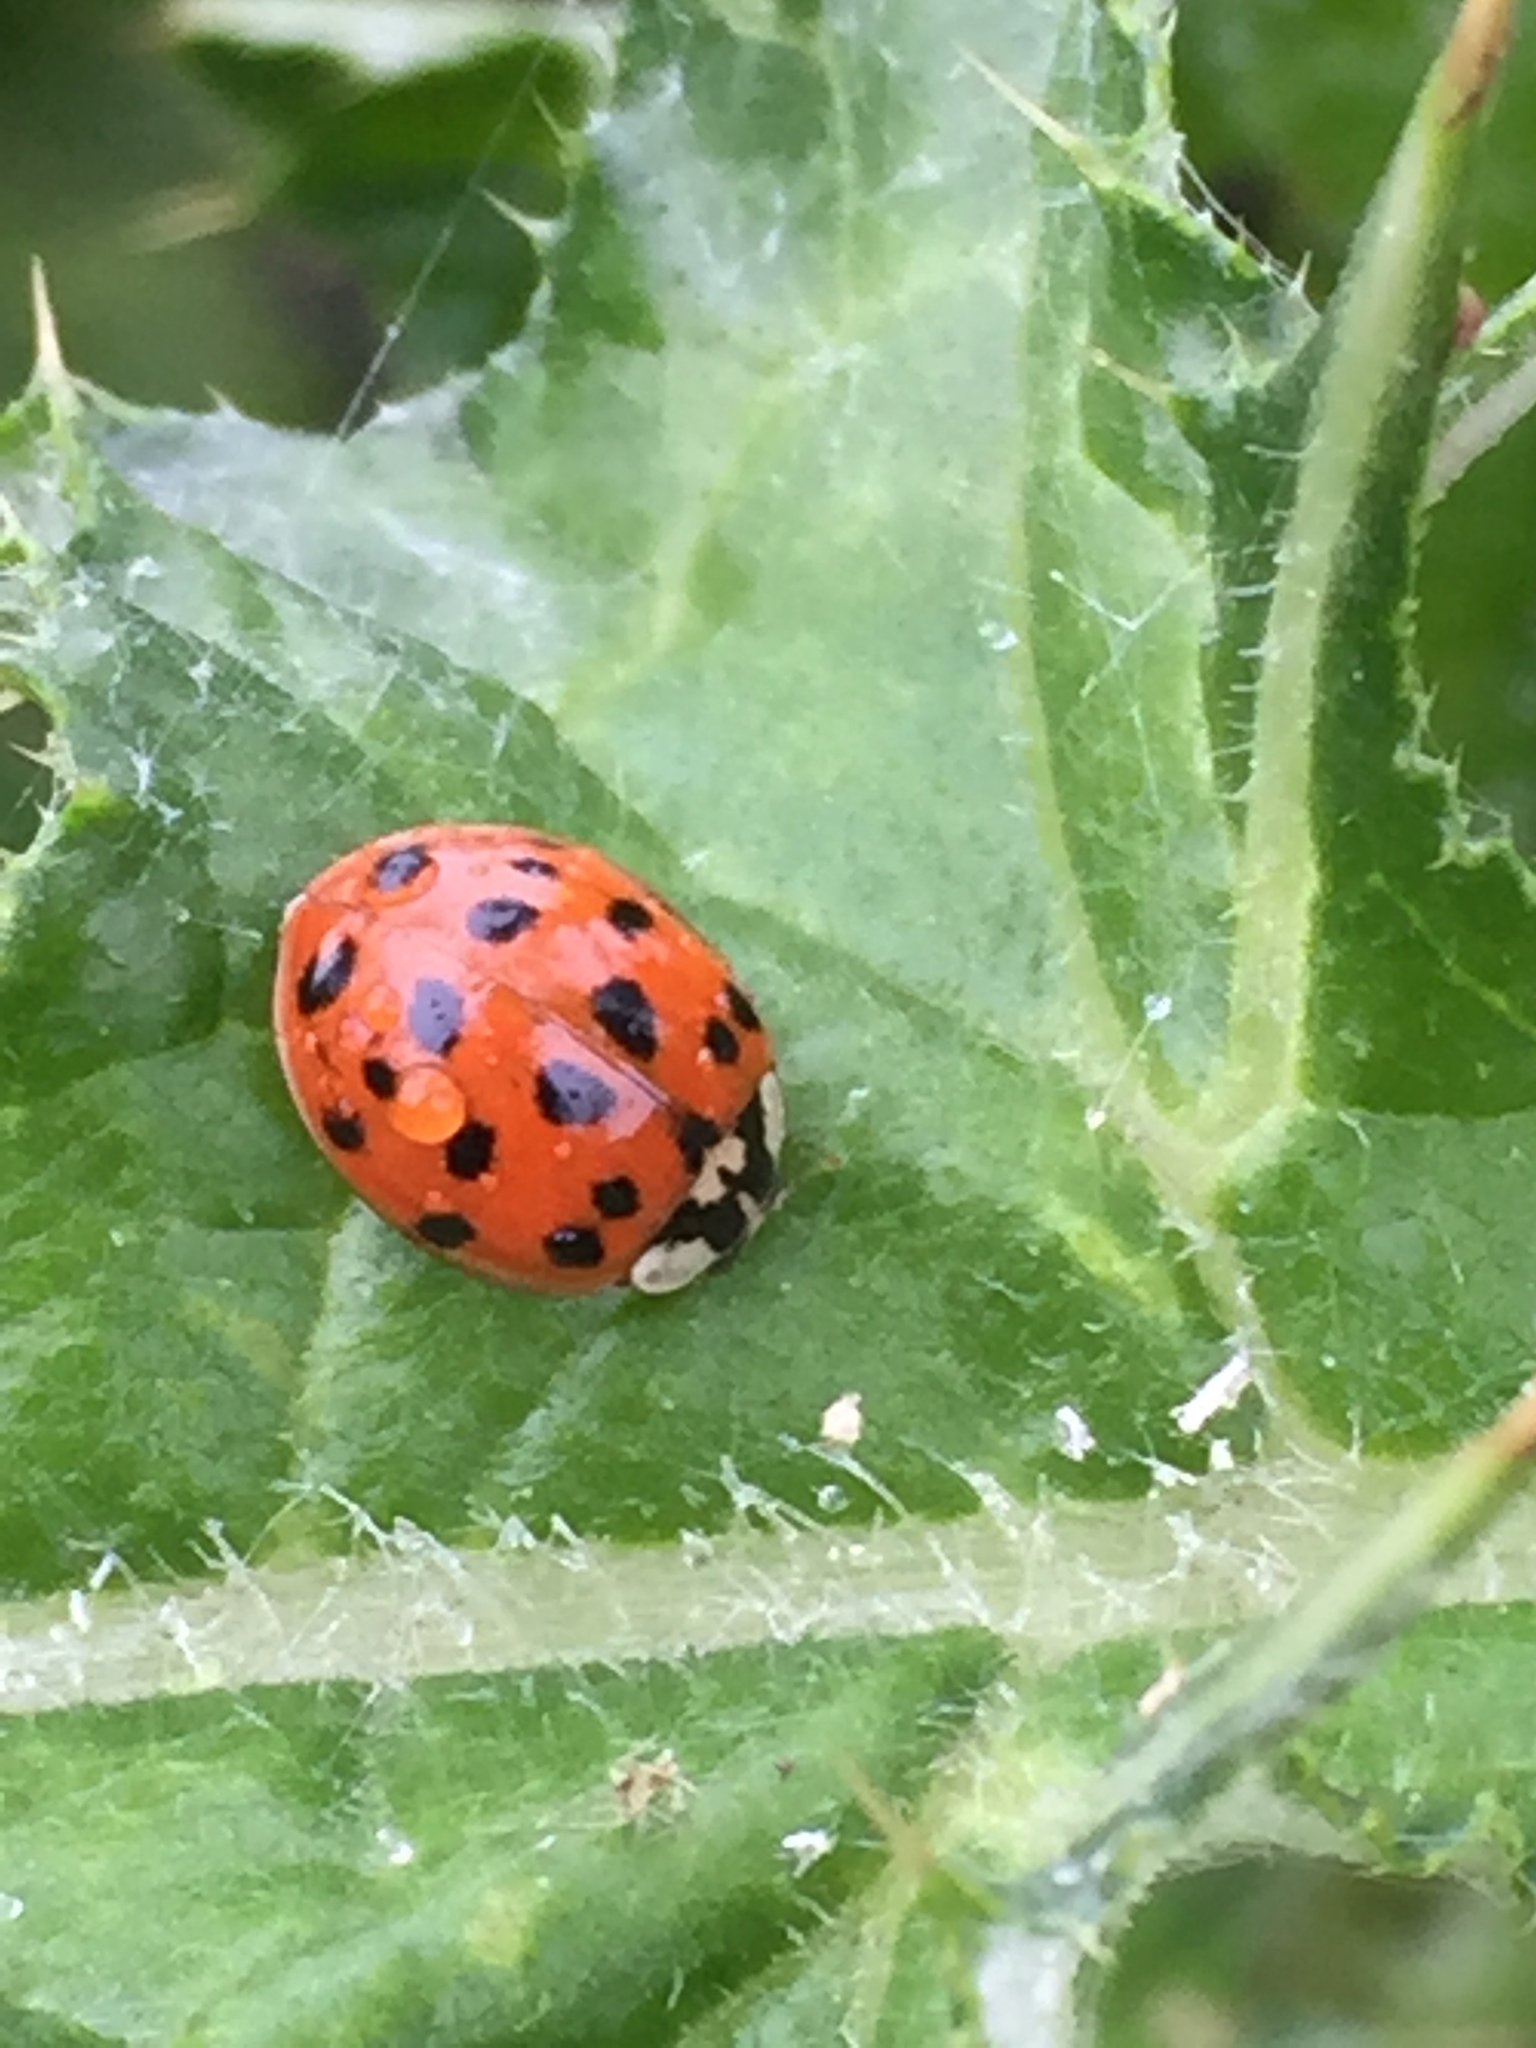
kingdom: Animalia
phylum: Arthropoda
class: Insecta
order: Coleoptera
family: Coccinellidae
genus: Harmonia
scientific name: Harmonia axyridis
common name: Harlequin ladybird
